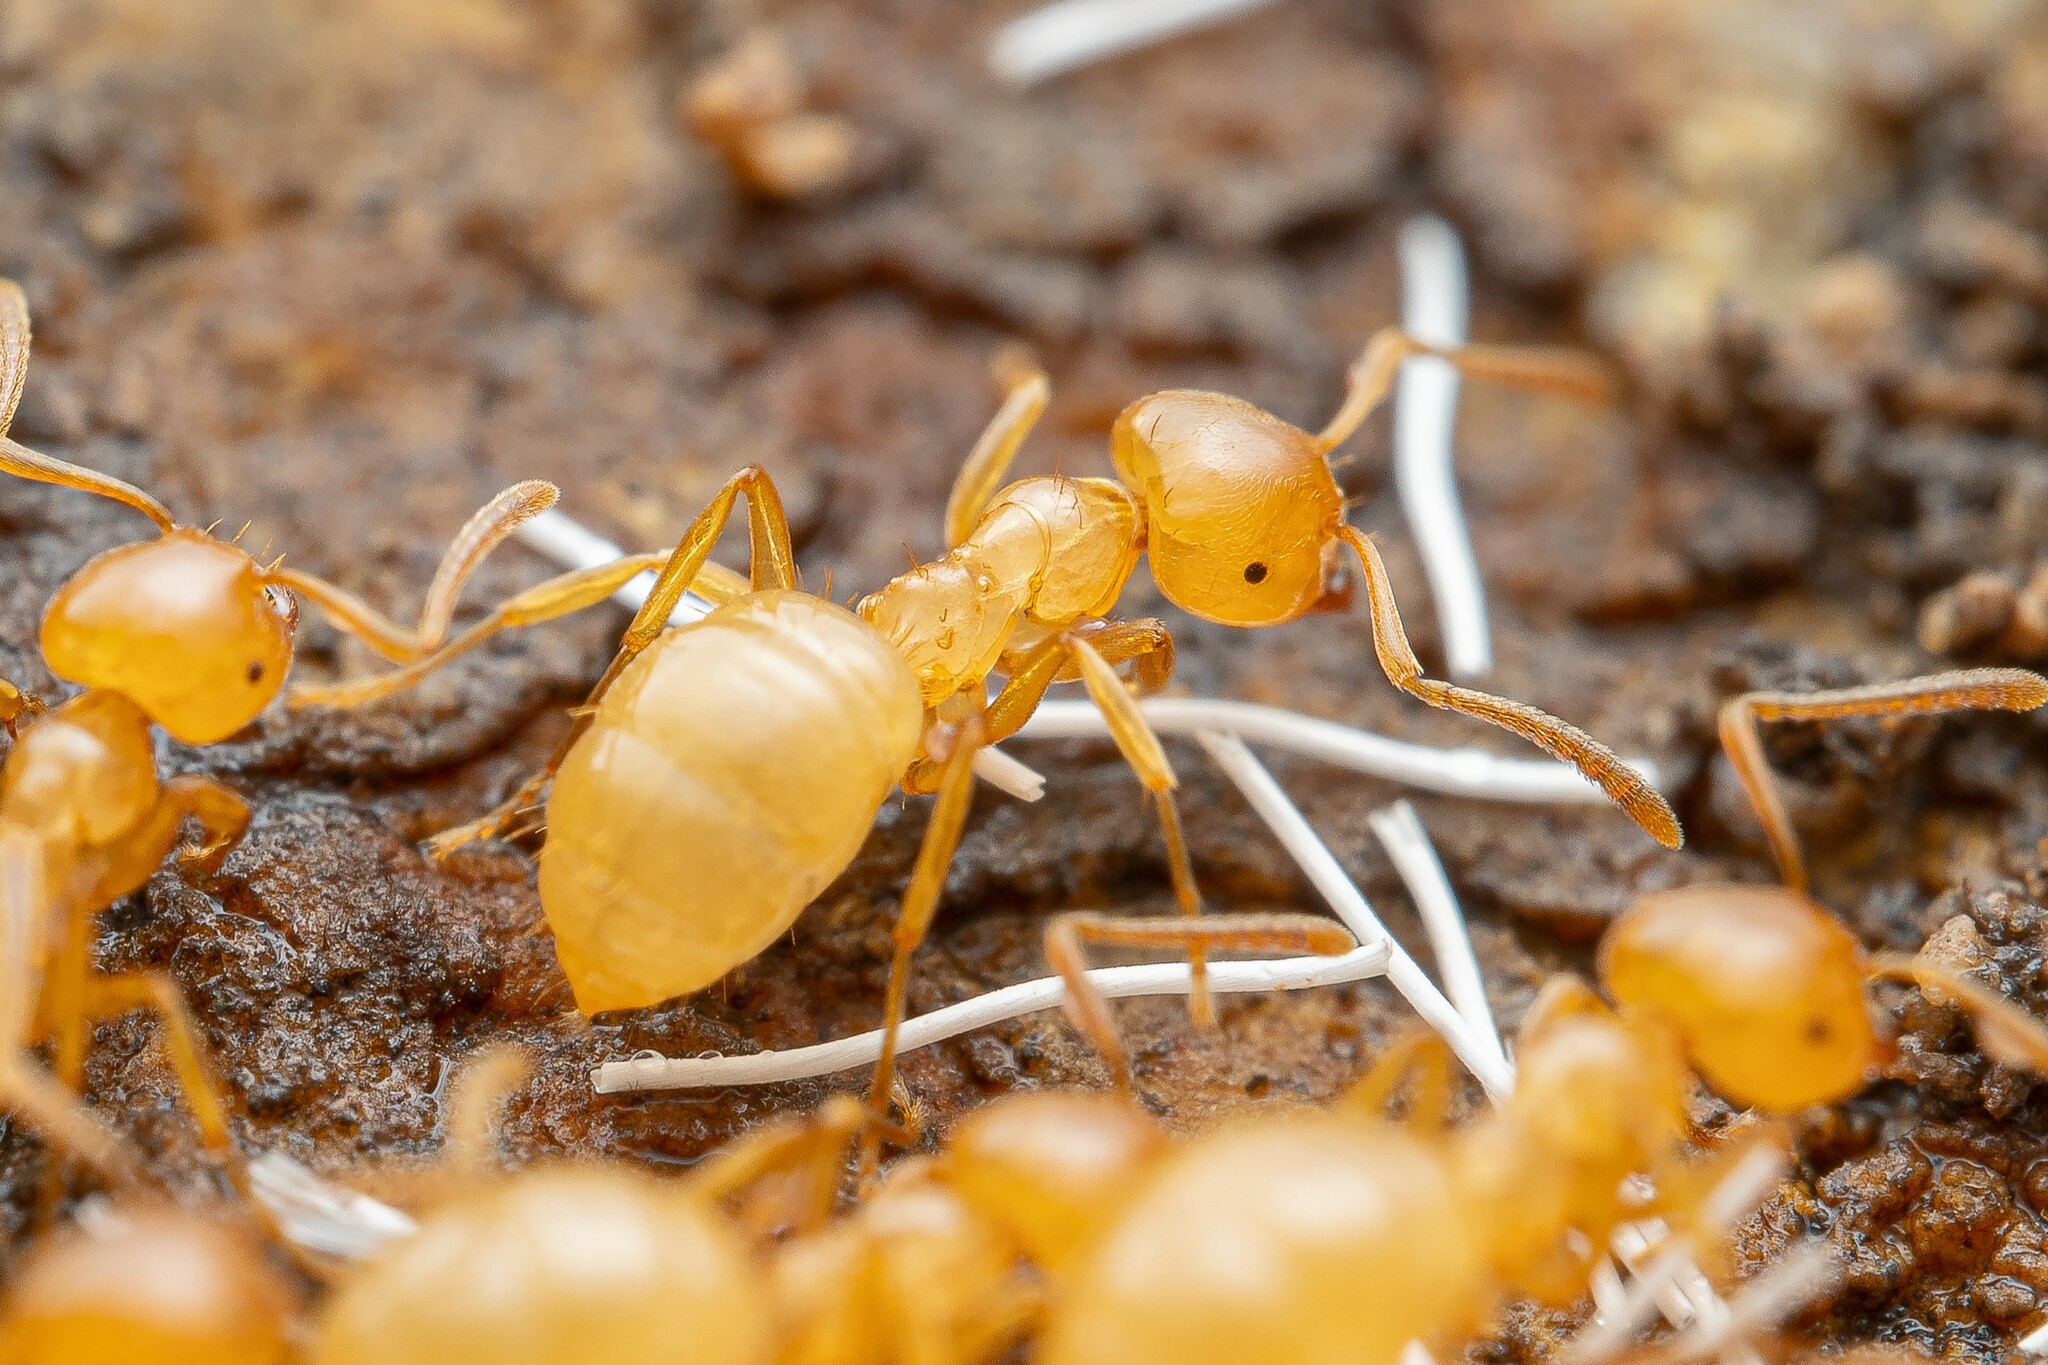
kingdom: Animalia
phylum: Arthropoda
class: Insecta
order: Hymenoptera
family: Formicidae
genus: Lasius
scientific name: Lasius arizonicus
